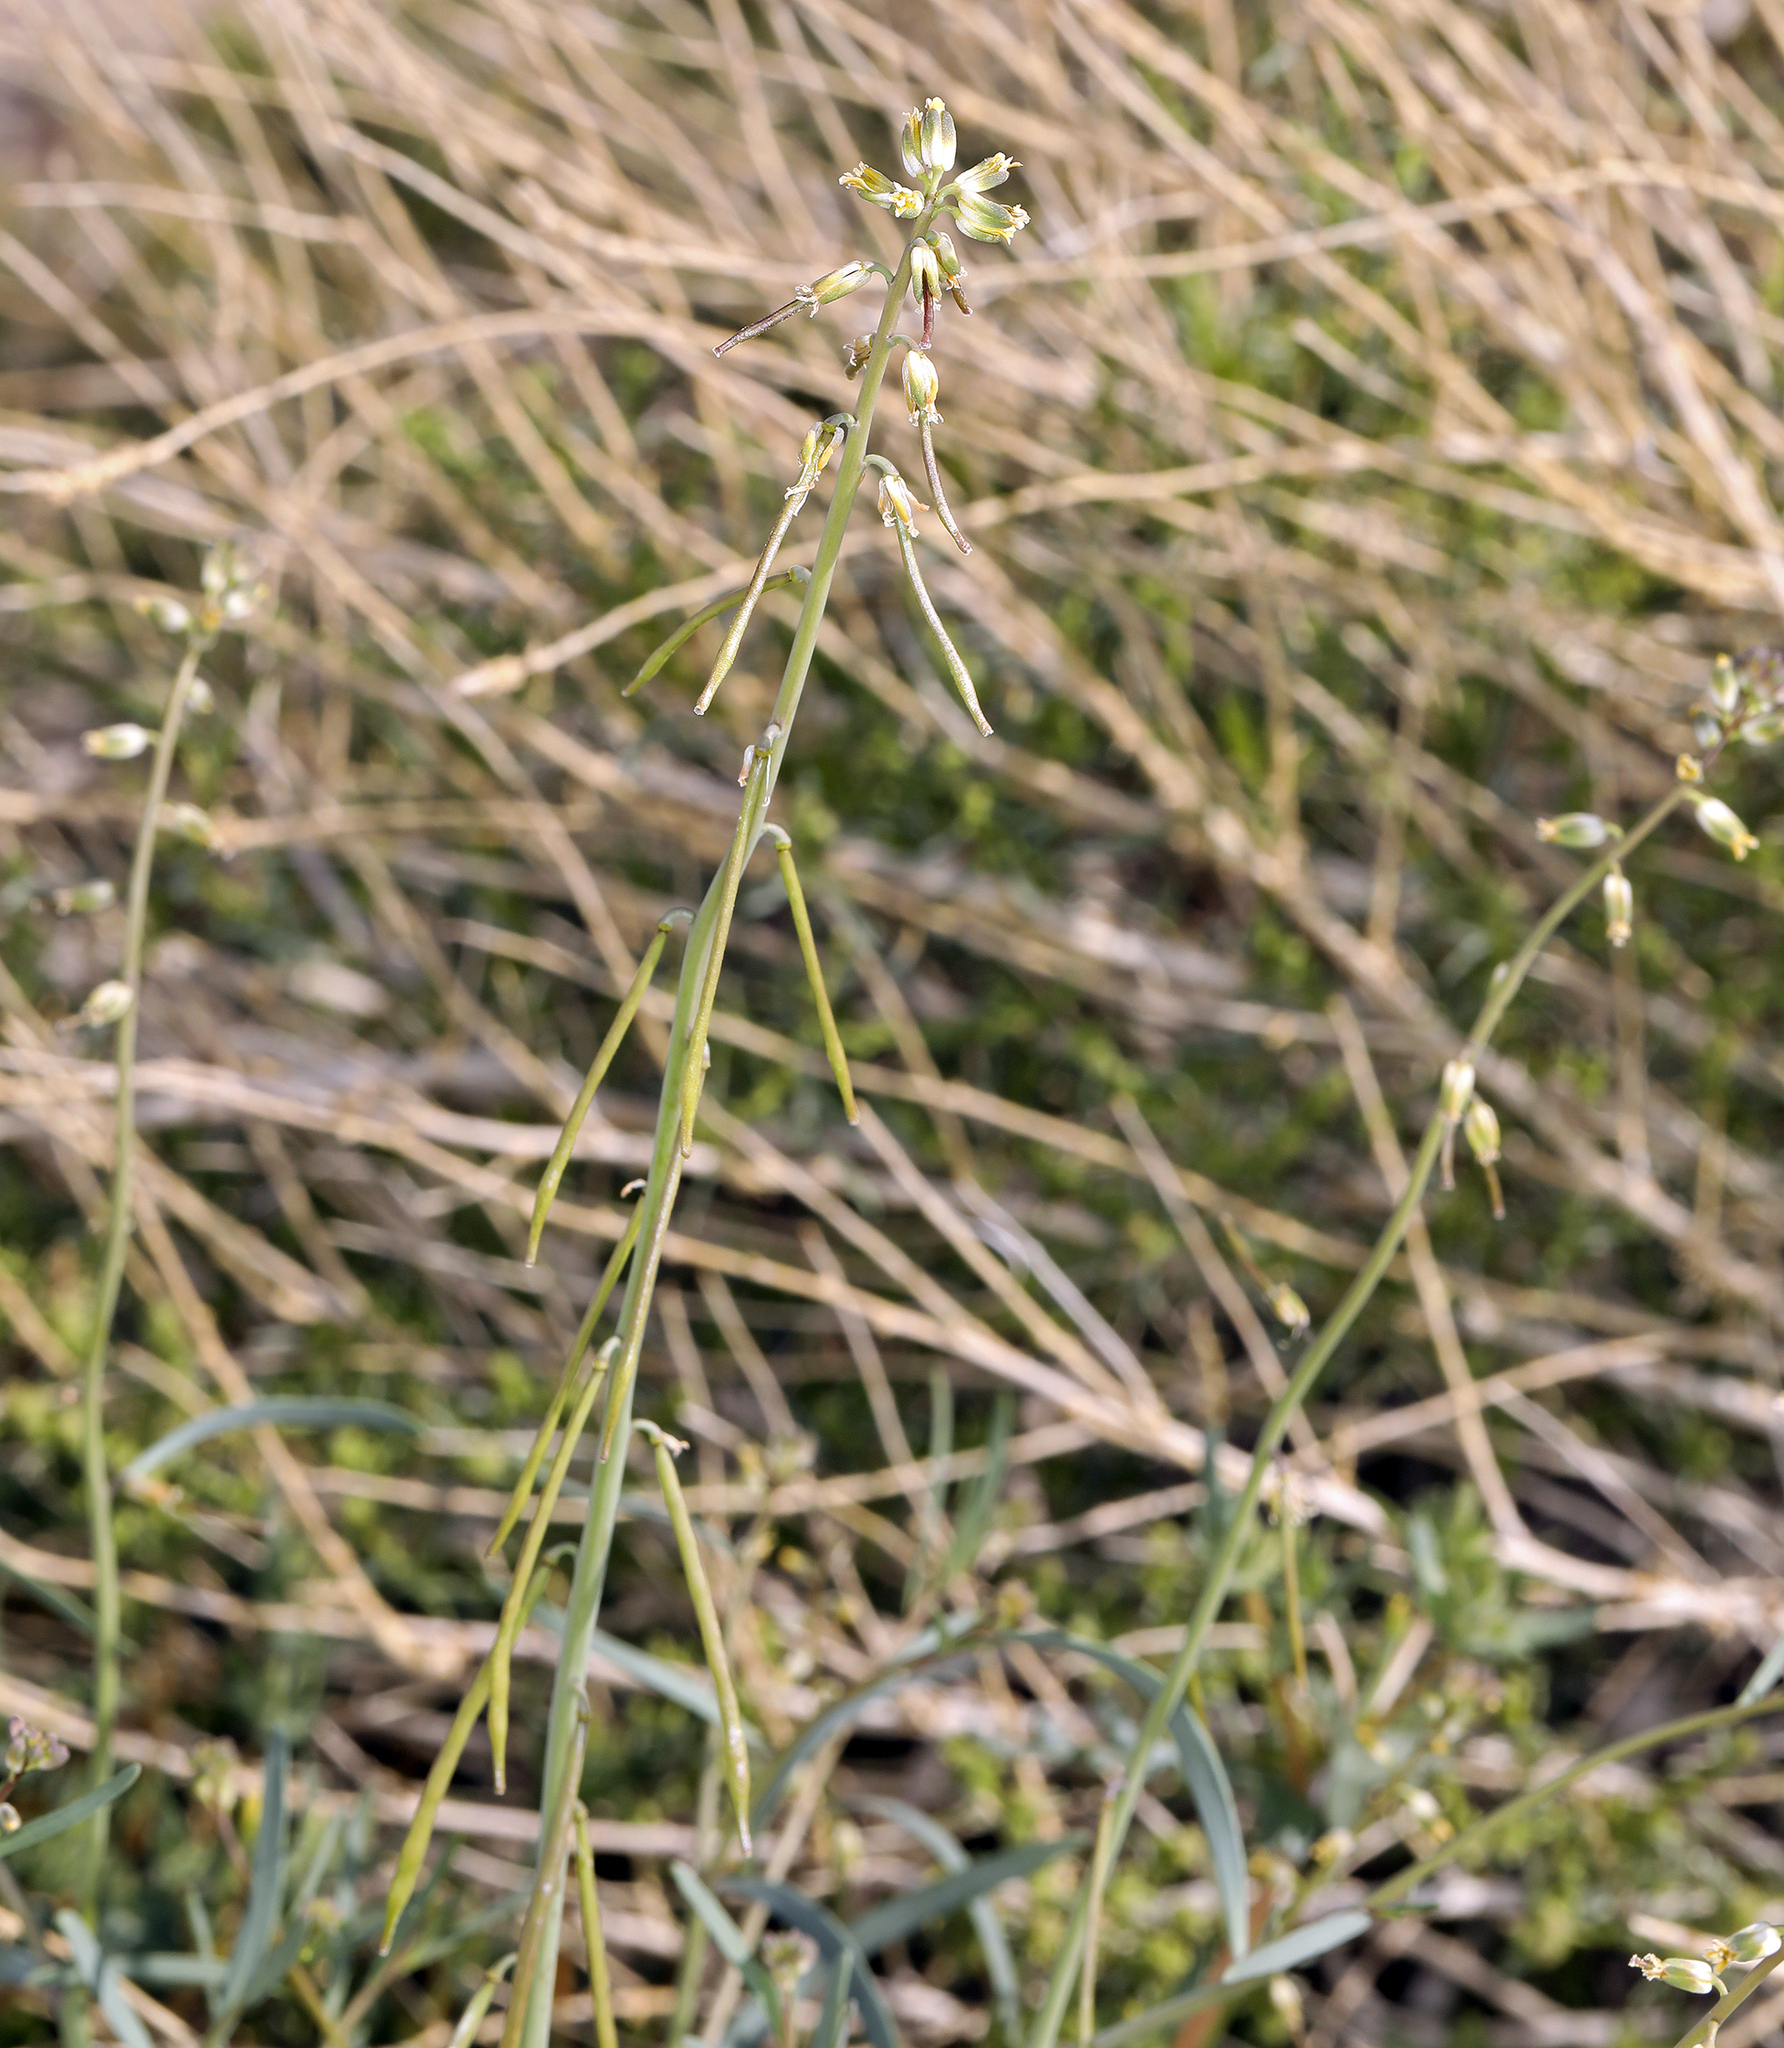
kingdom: Plantae
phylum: Tracheophyta
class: Magnoliopsida
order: Brassicales
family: Brassicaceae
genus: Streptanthus
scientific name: Streptanthus longirostris
